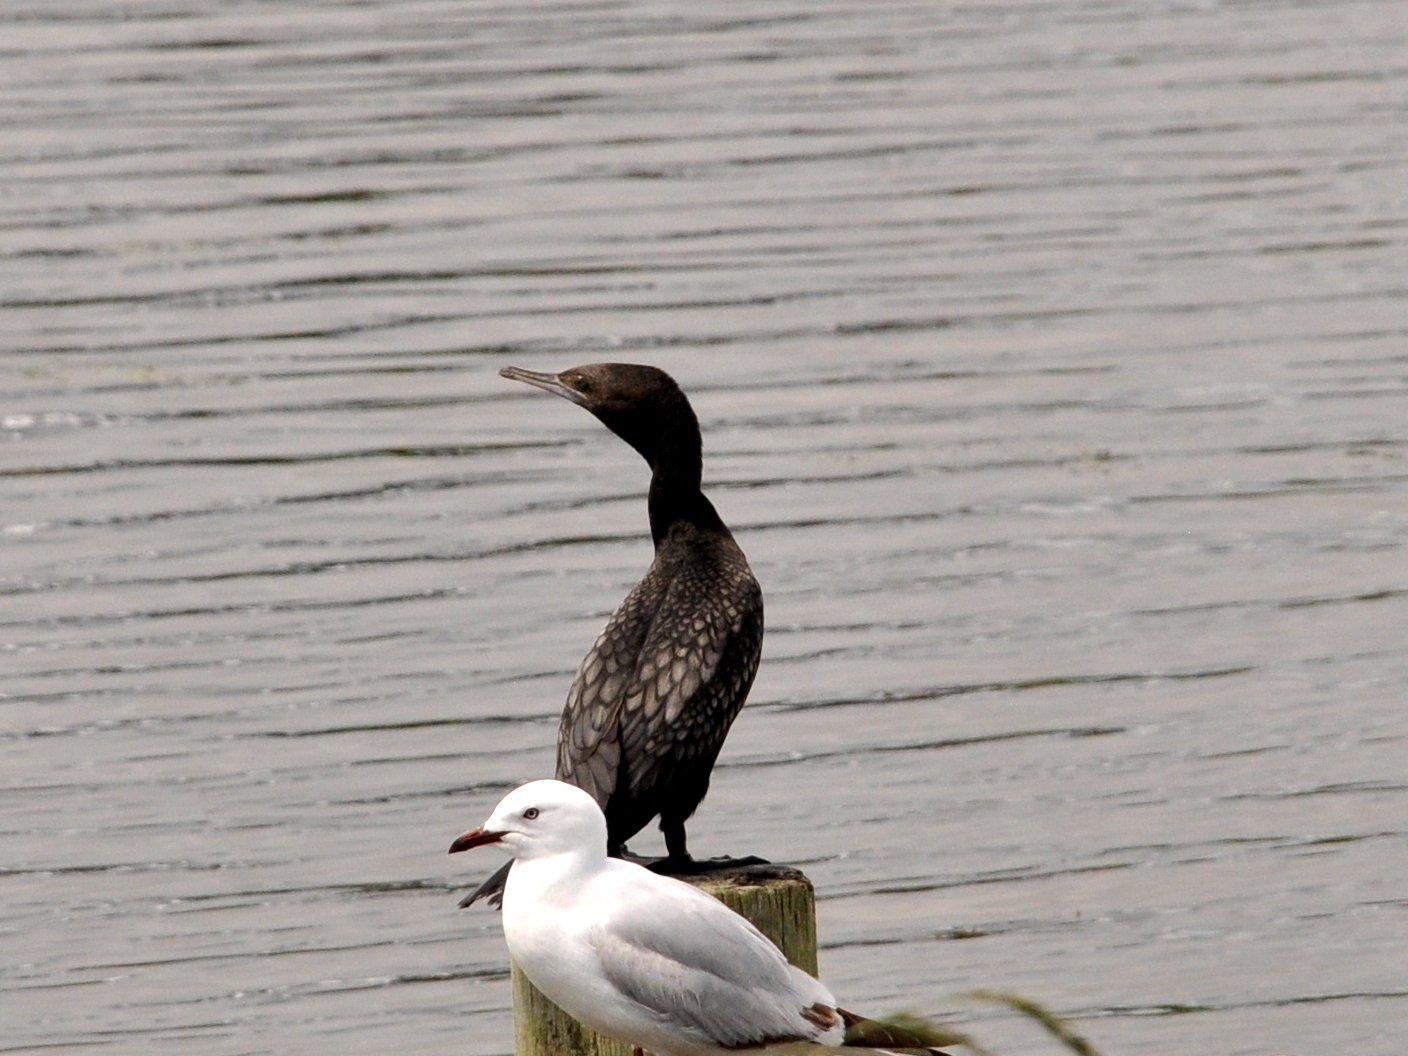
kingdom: Animalia
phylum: Chordata
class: Aves
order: Suliformes
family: Phalacrocoracidae
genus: Phalacrocorax
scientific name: Phalacrocorax sulcirostris
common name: Little black cormorant
